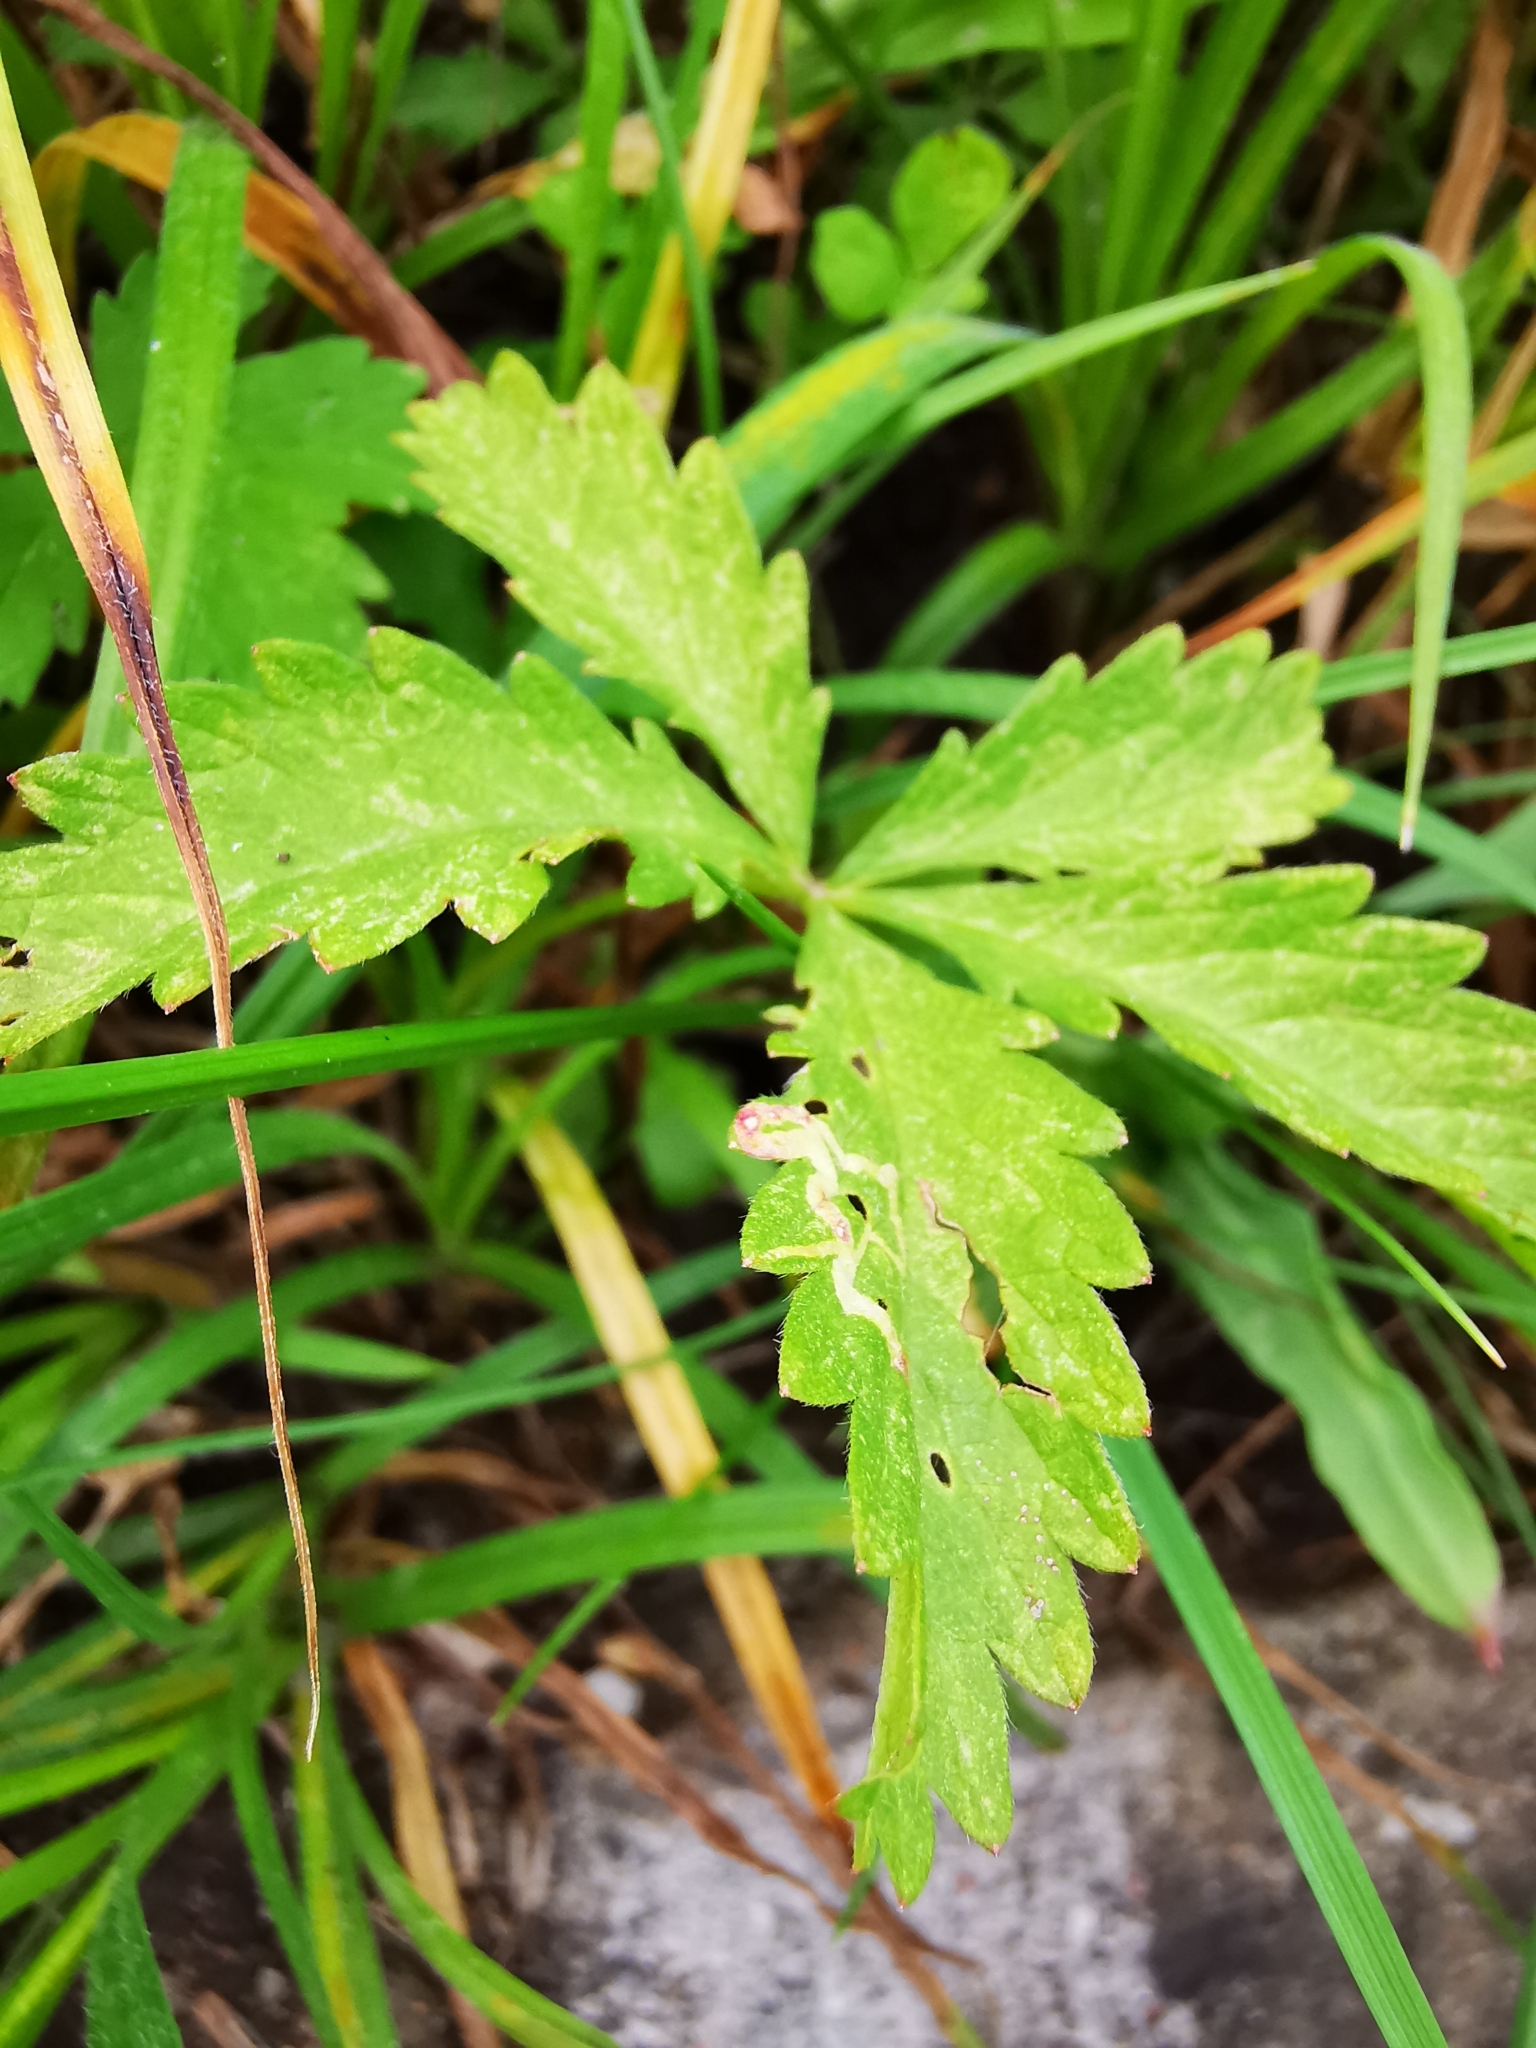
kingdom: Plantae
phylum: Tracheophyta
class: Magnoliopsida
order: Rosales
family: Rosaceae
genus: Potentilla
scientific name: Potentilla reptans
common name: Creeping cinquefoil
